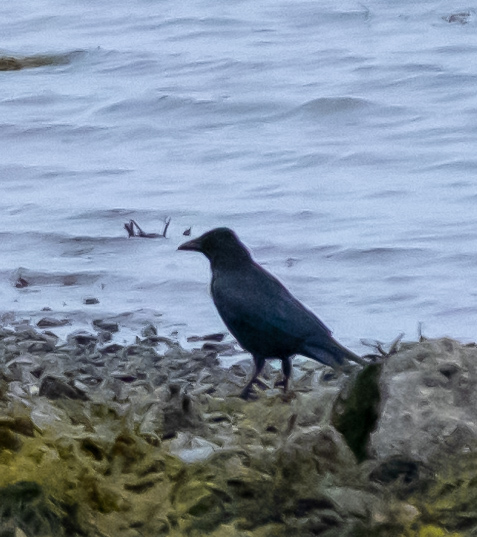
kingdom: Animalia
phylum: Chordata
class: Aves
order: Passeriformes
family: Corvidae
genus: Corvus
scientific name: Corvus corone
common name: Carrion crow
